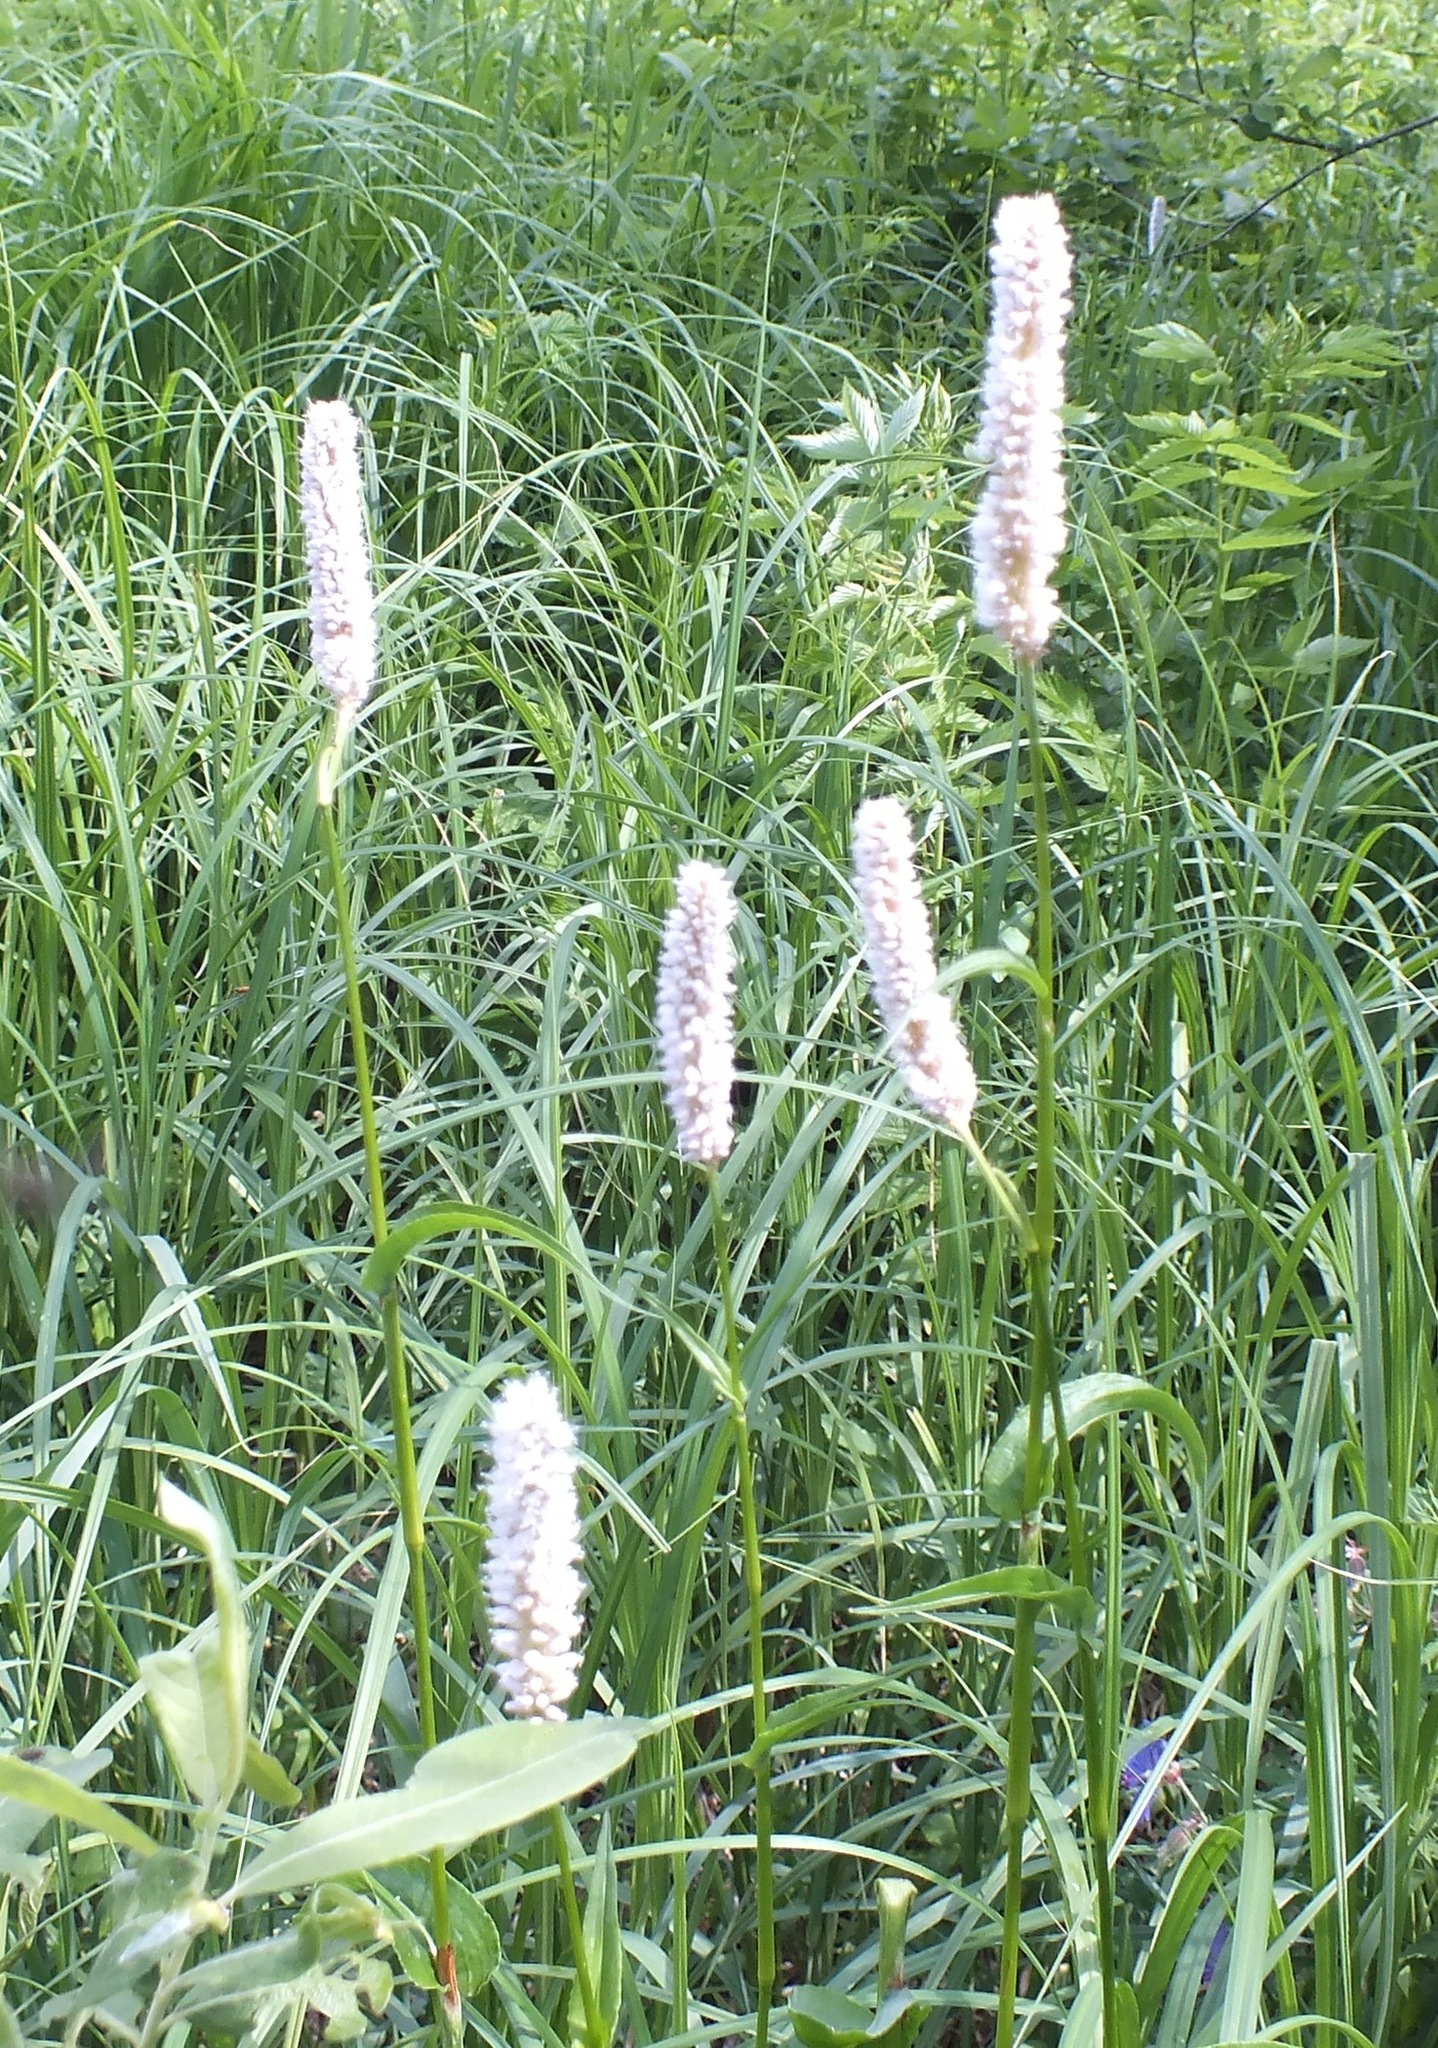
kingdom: Plantae
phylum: Tracheophyta
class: Magnoliopsida
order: Caryophyllales
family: Polygonaceae
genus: Bistorta
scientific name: Bistorta officinalis
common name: Common bistort
